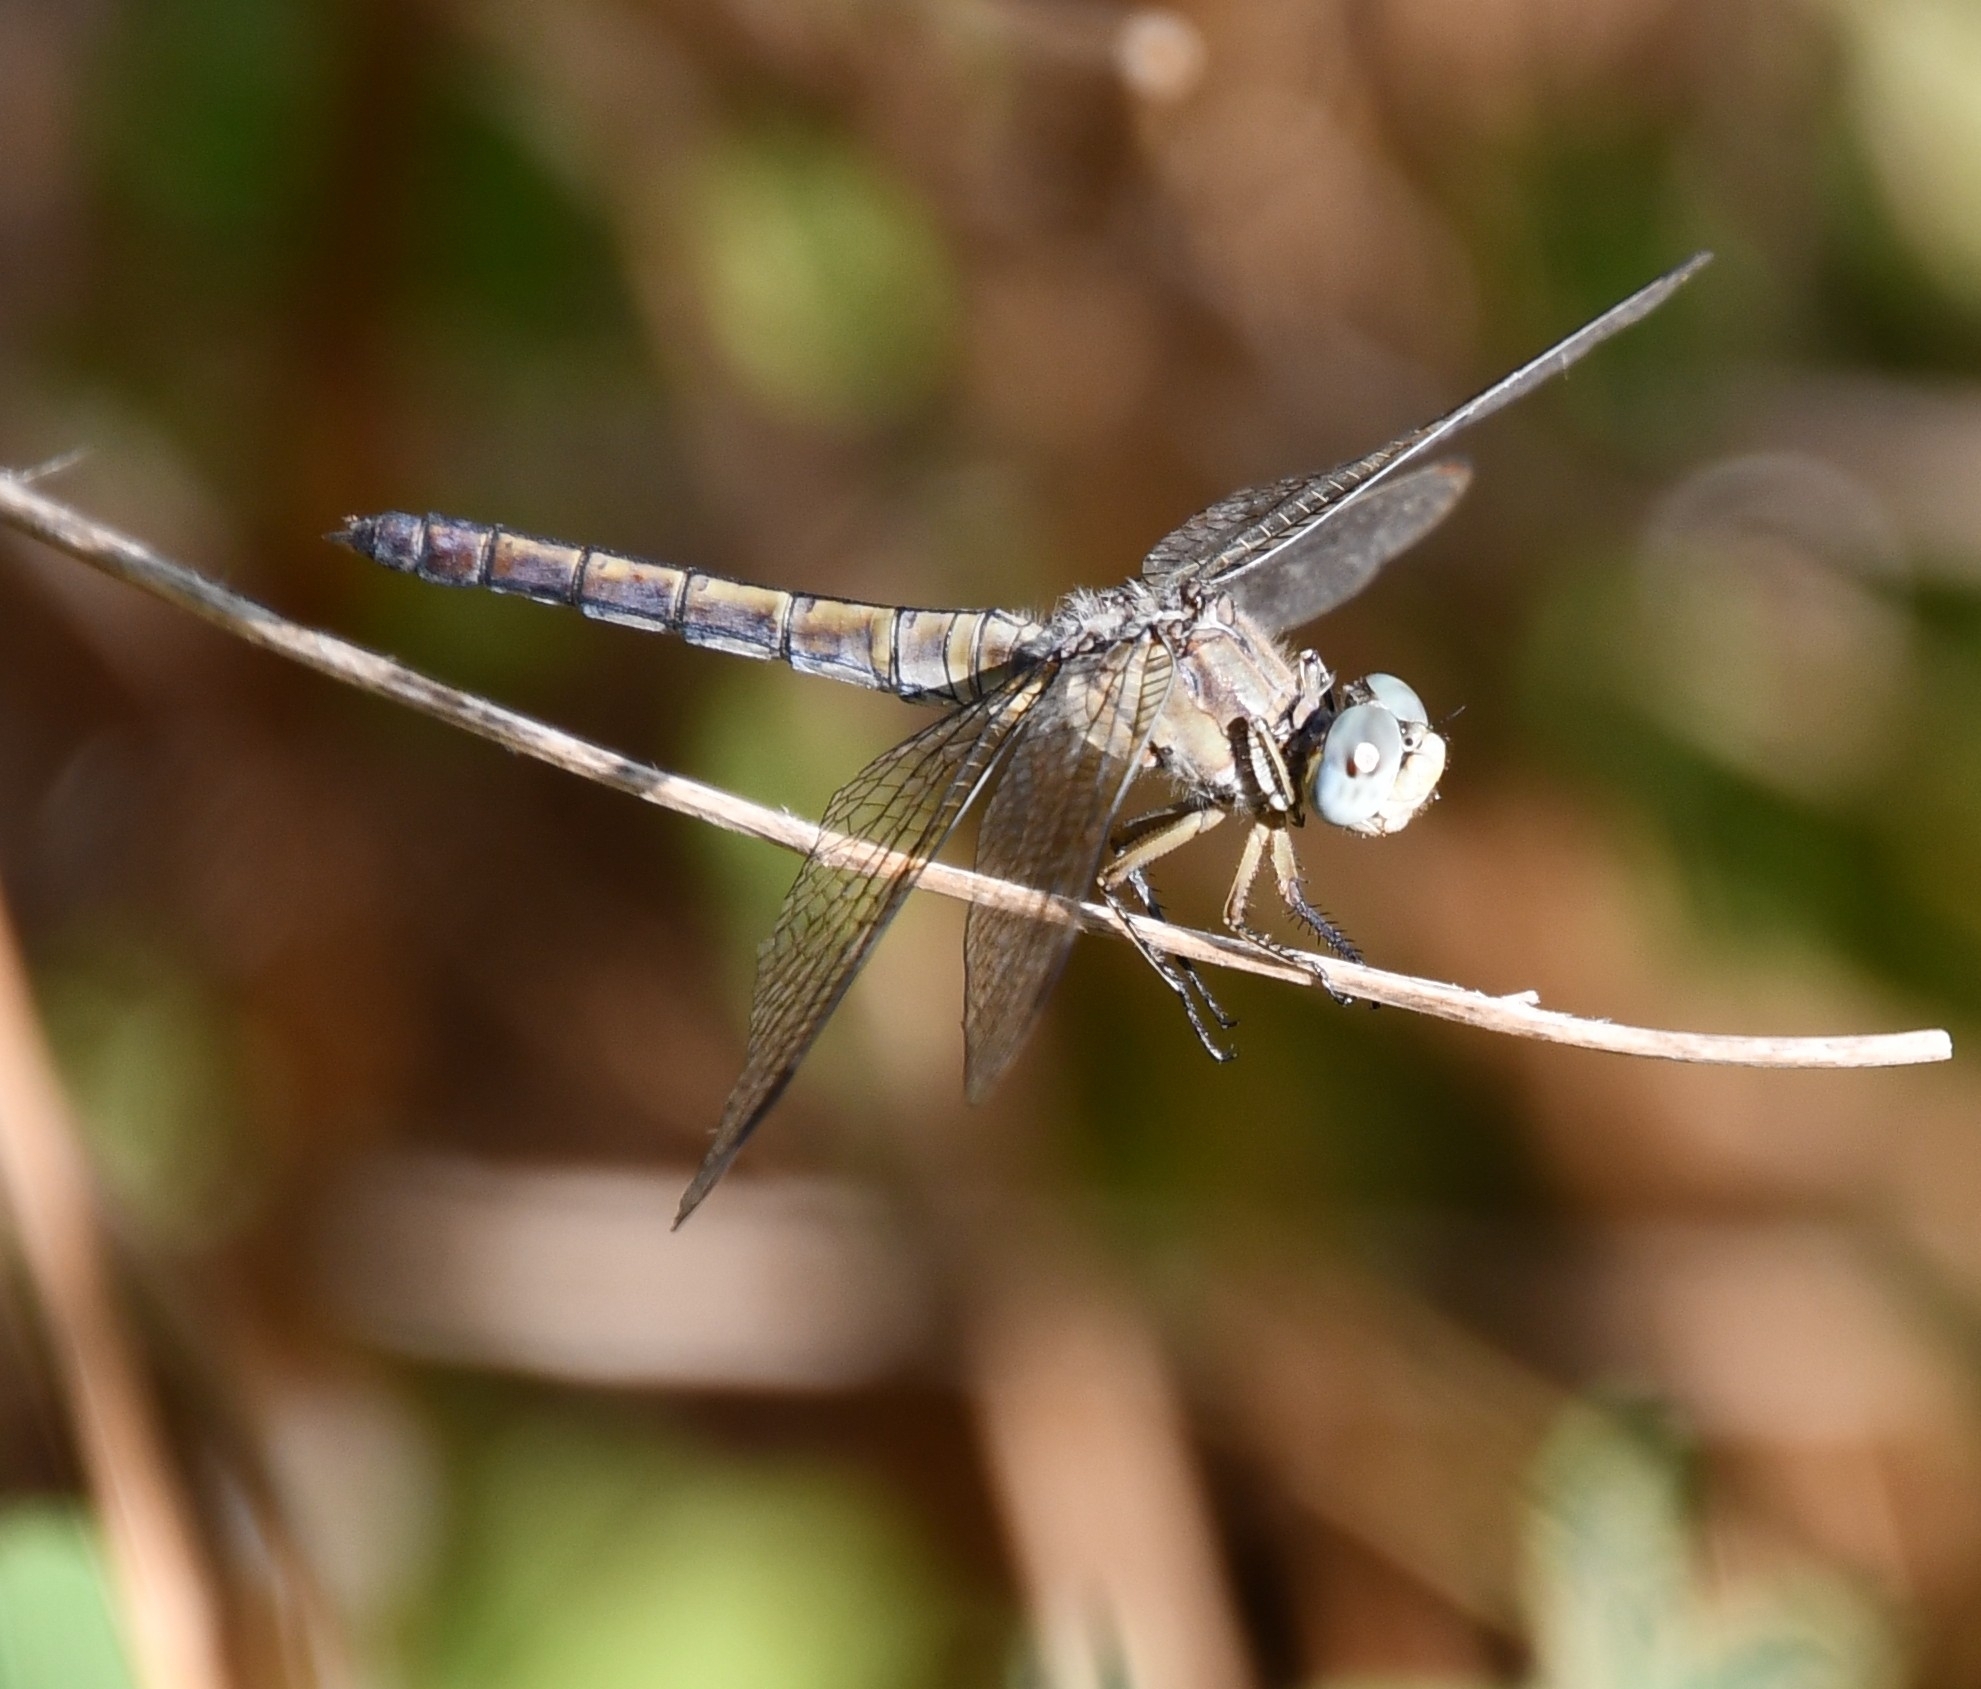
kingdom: Animalia
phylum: Arthropoda
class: Insecta
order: Odonata
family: Libellulidae
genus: Orthetrum
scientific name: Orthetrum coerulescens
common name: Keeled skimmer
